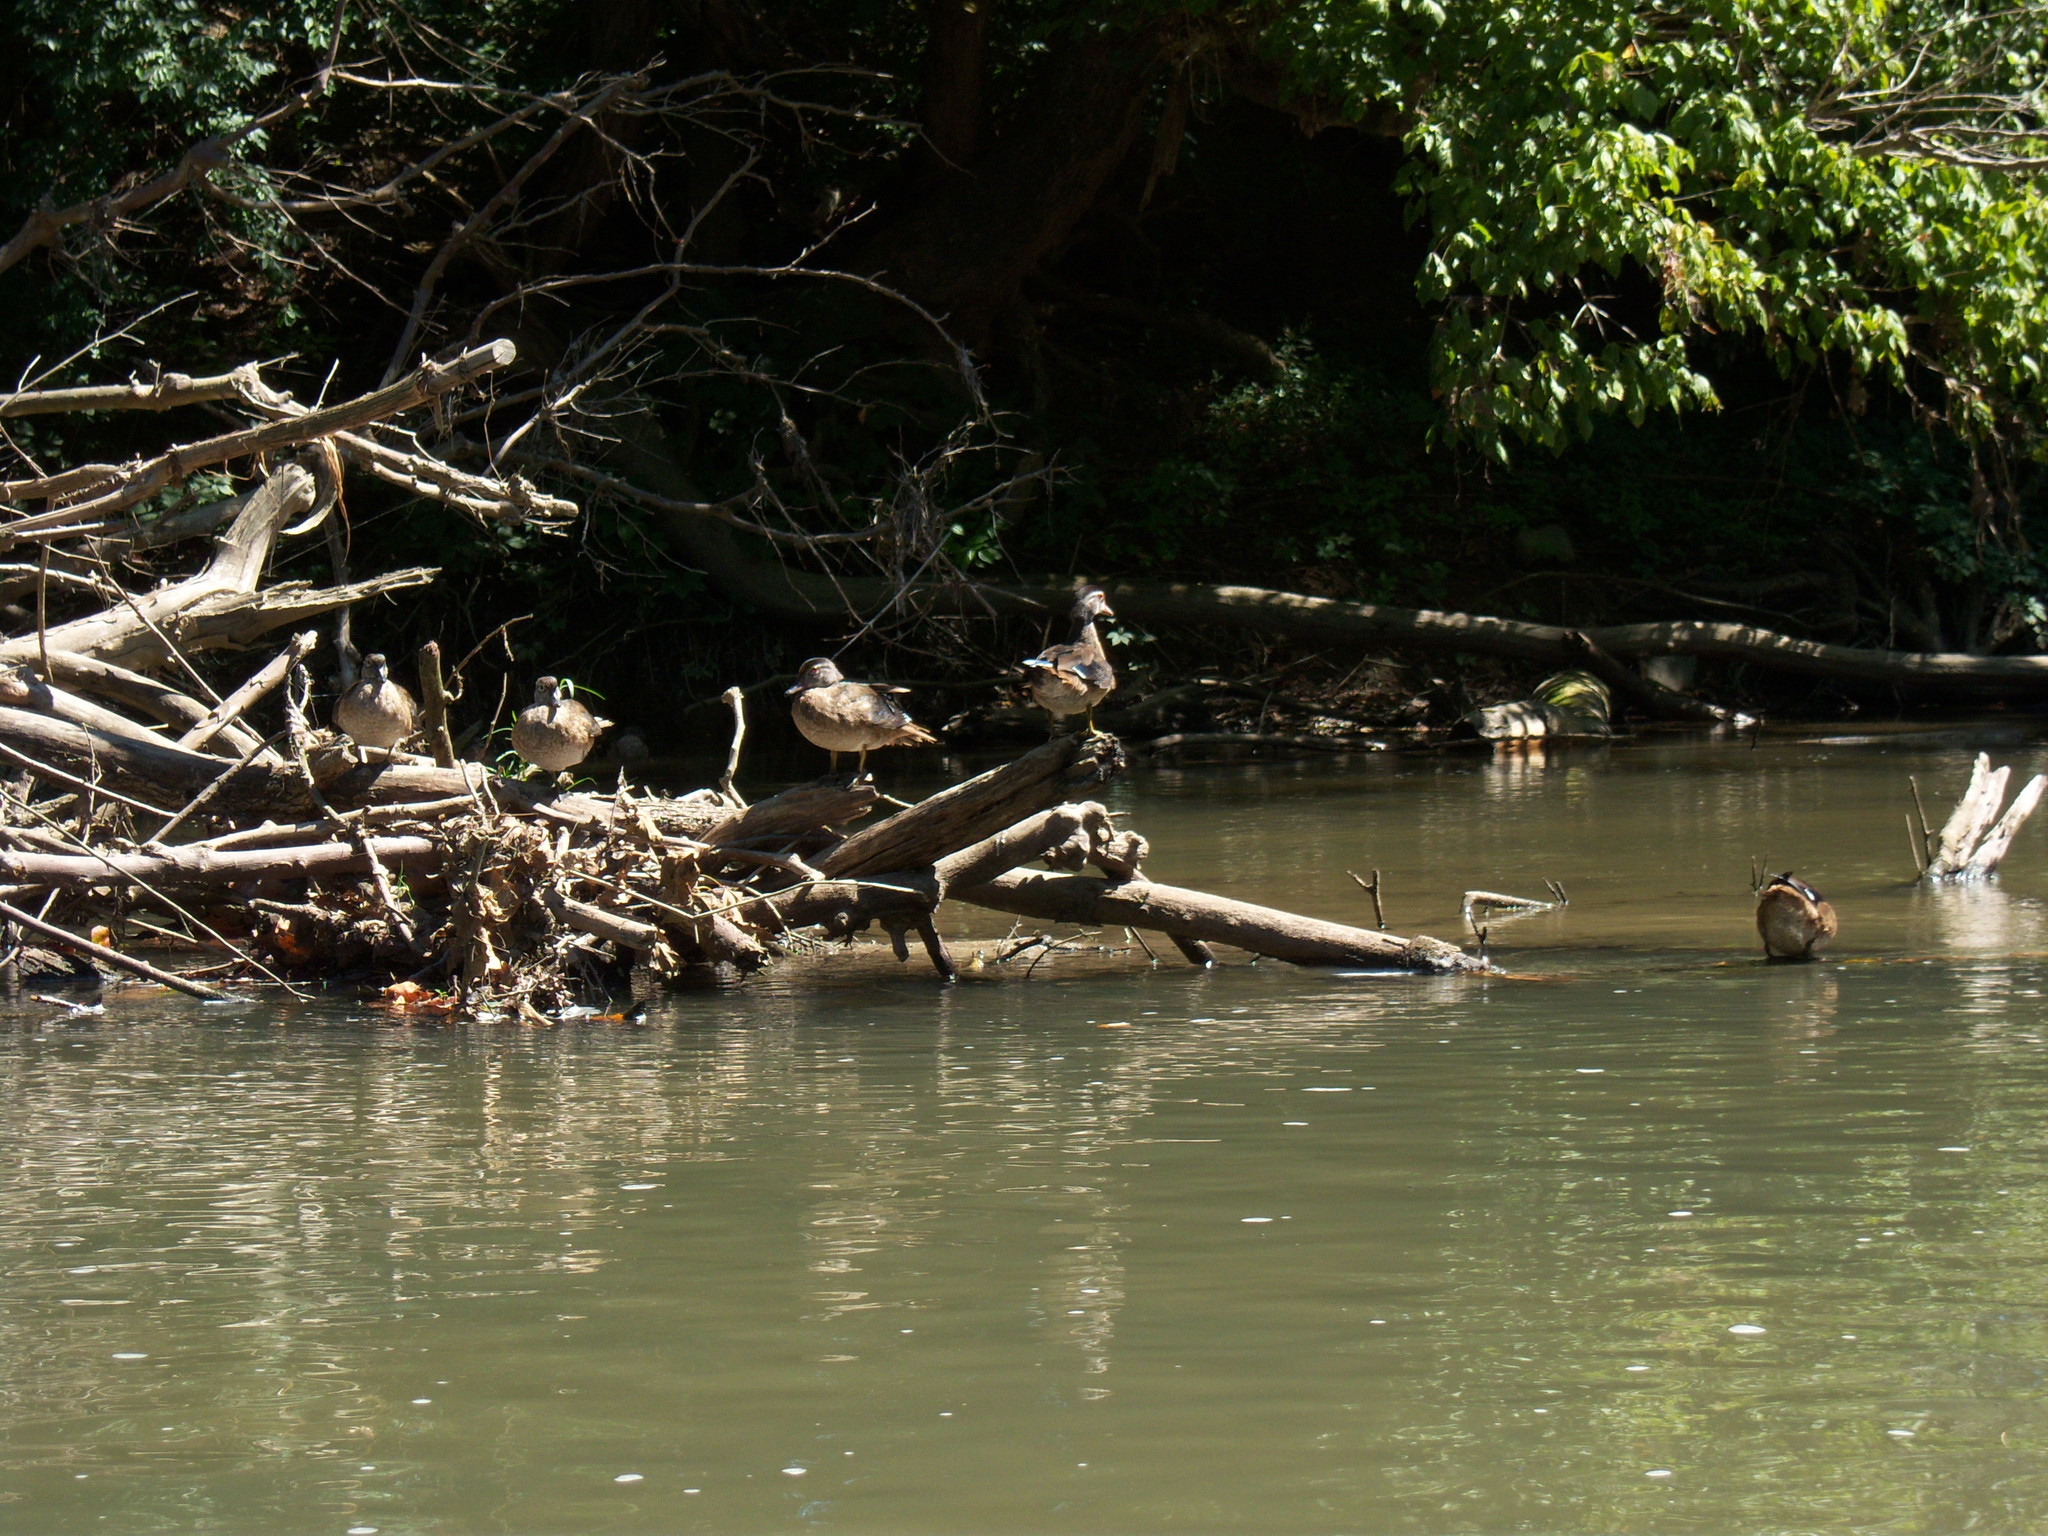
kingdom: Animalia
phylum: Chordata
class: Aves
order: Anseriformes
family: Anatidae
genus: Aix
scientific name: Aix sponsa
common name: Wood duck
